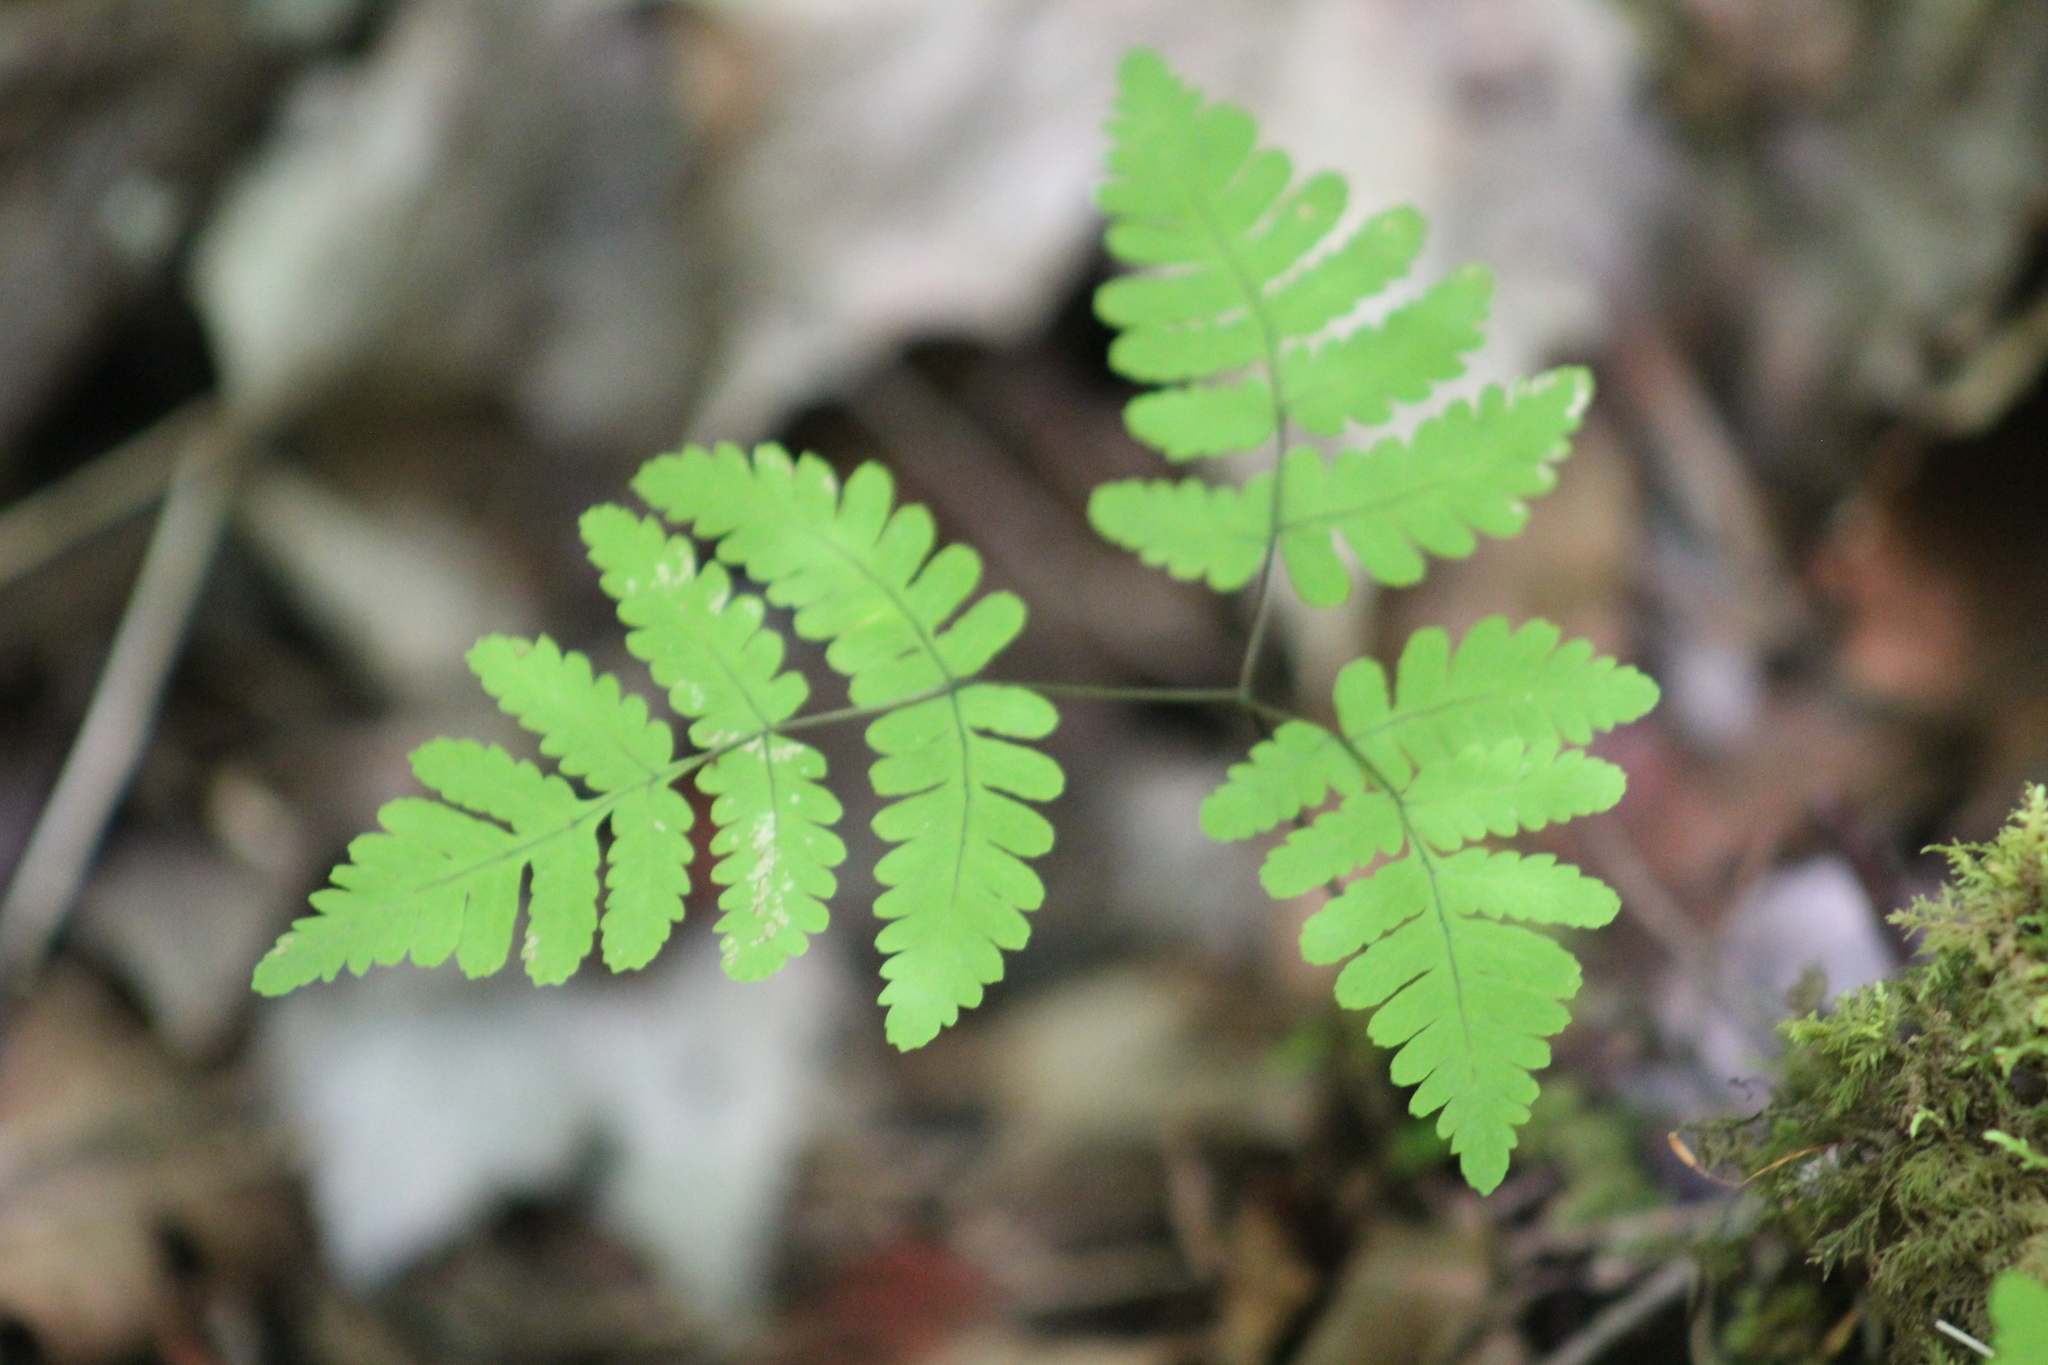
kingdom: Plantae
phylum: Tracheophyta
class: Polypodiopsida
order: Polypodiales
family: Cystopteridaceae
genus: Gymnocarpium
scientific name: Gymnocarpium dryopteris
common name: Oak fern
